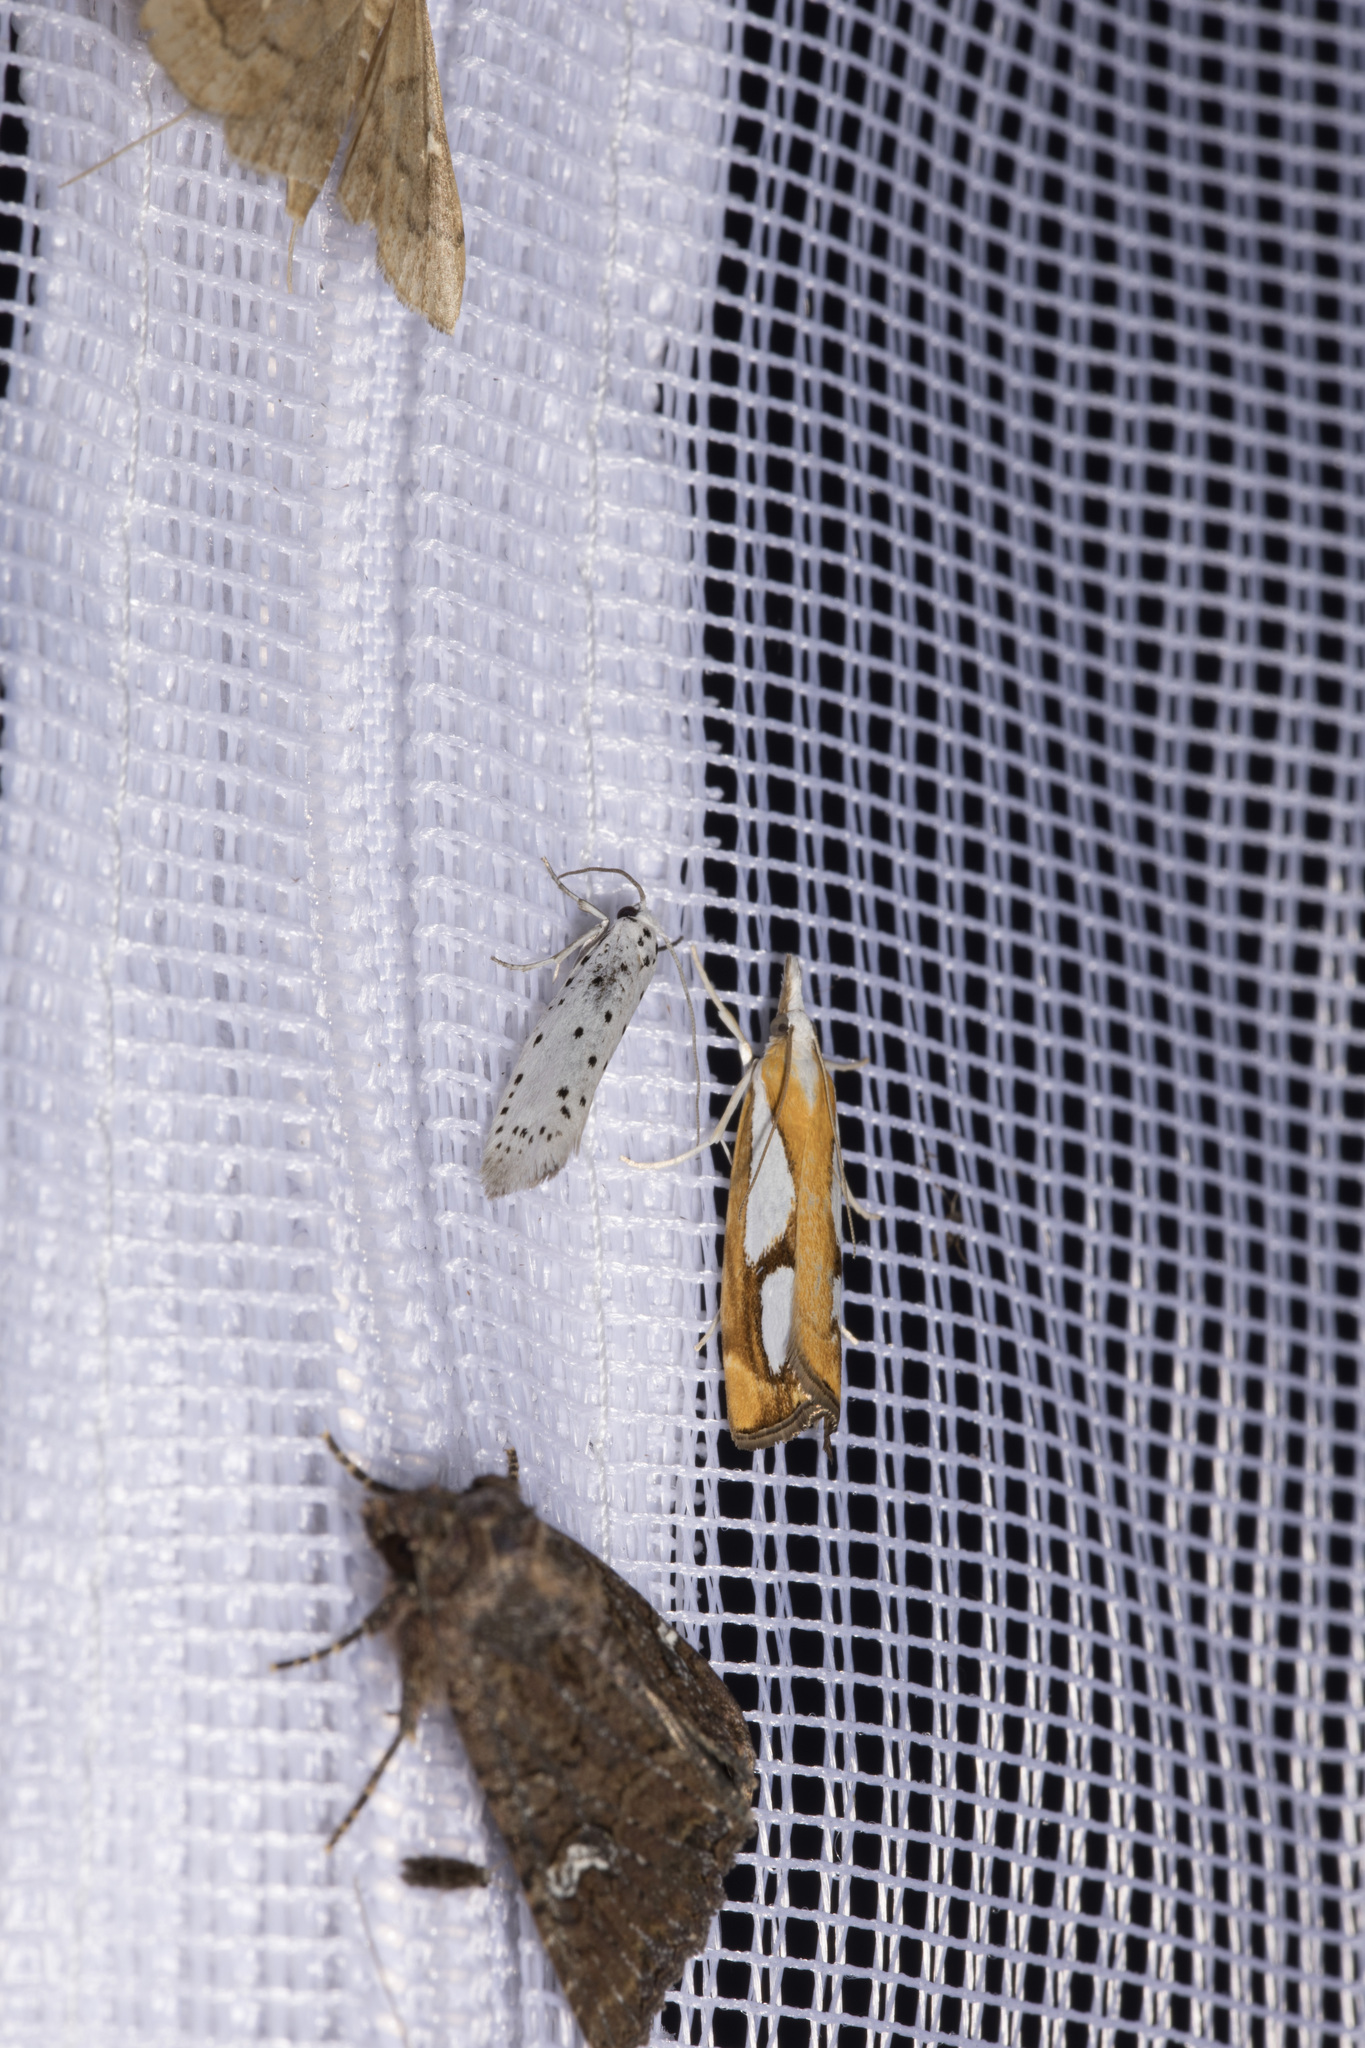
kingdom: Animalia
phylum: Arthropoda
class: Insecta
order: Lepidoptera
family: Crambidae
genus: Catoptria
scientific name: Catoptria pinella
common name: Pearl grass-veneer
